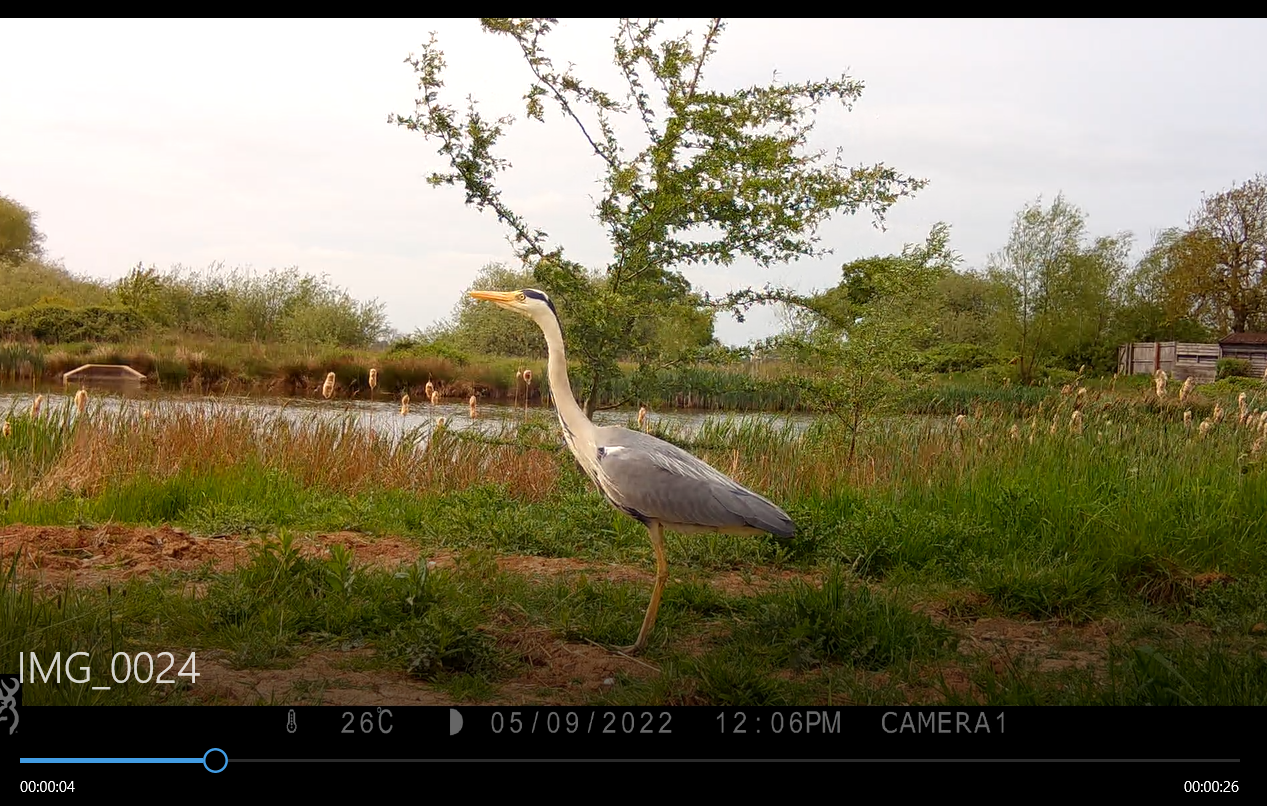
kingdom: Animalia
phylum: Chordata
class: Aves
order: Pelecaniformes
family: Ardeidae
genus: Ardea
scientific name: Ardea cinerea
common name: Grey heron
